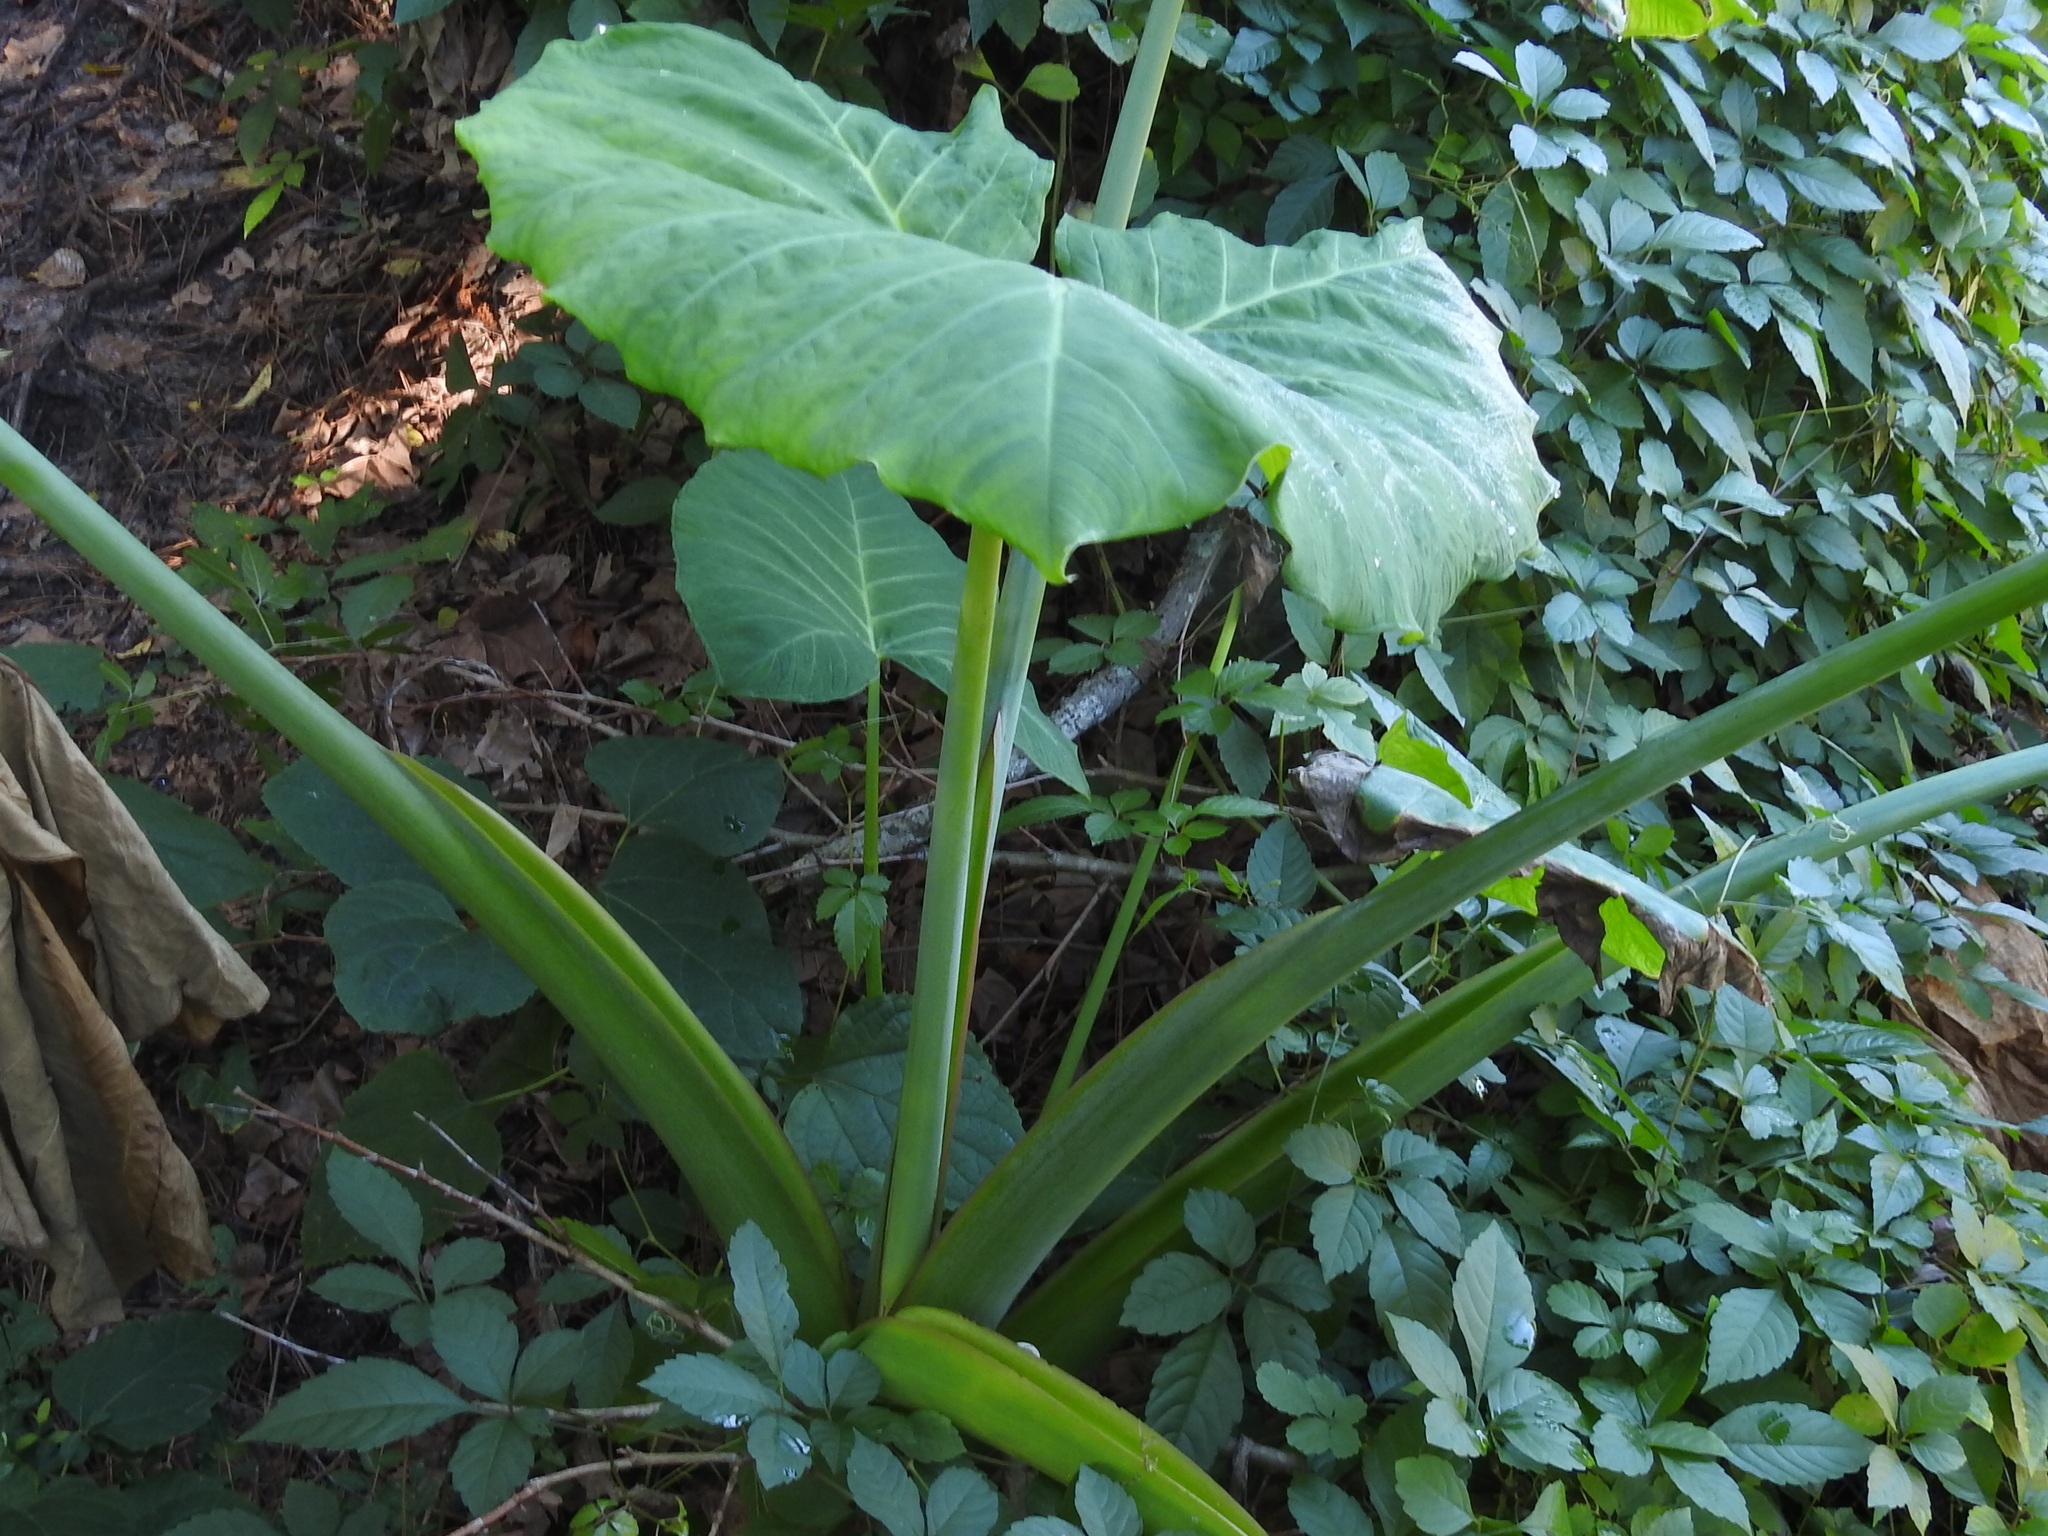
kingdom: Plantae
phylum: Tracheophyta
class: Liliopsida
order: Alismatales
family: Araceae
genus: Xanthosoma
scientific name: Xanthosoma sagittifolium
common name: Arrowleaf elephant's ear
